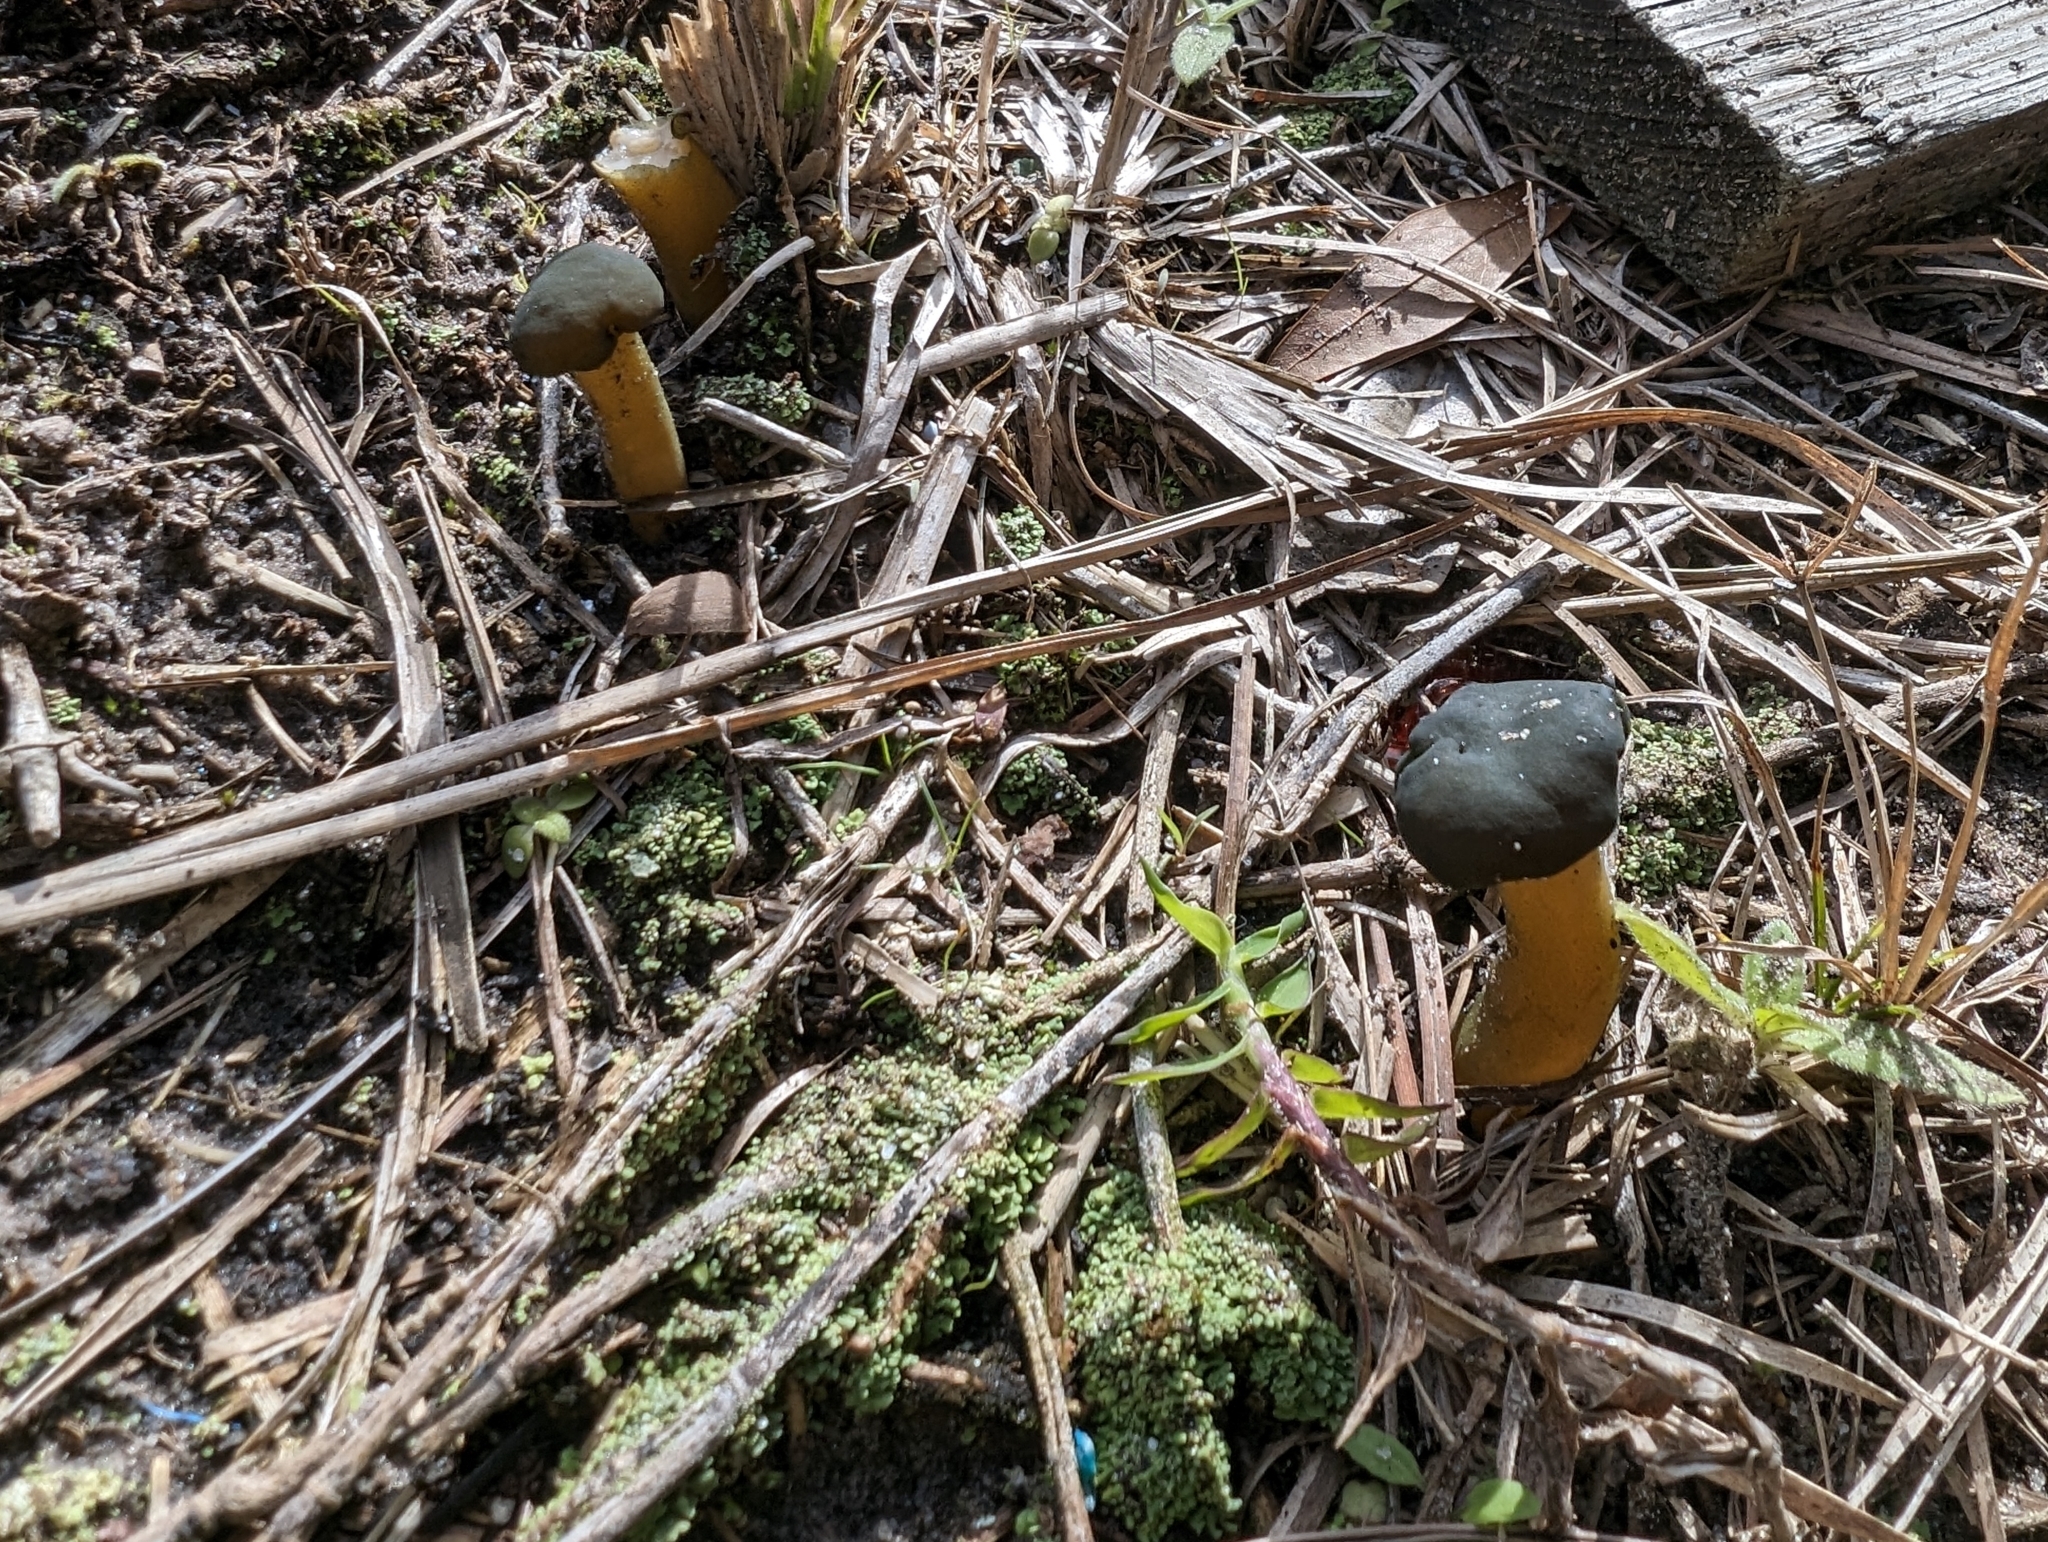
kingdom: Fungi
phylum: Ascomycota
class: Leotiomycetes
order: Leotiales
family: Leotiaceae
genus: Leotia
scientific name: Leotia lubrica
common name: Jellybaby
